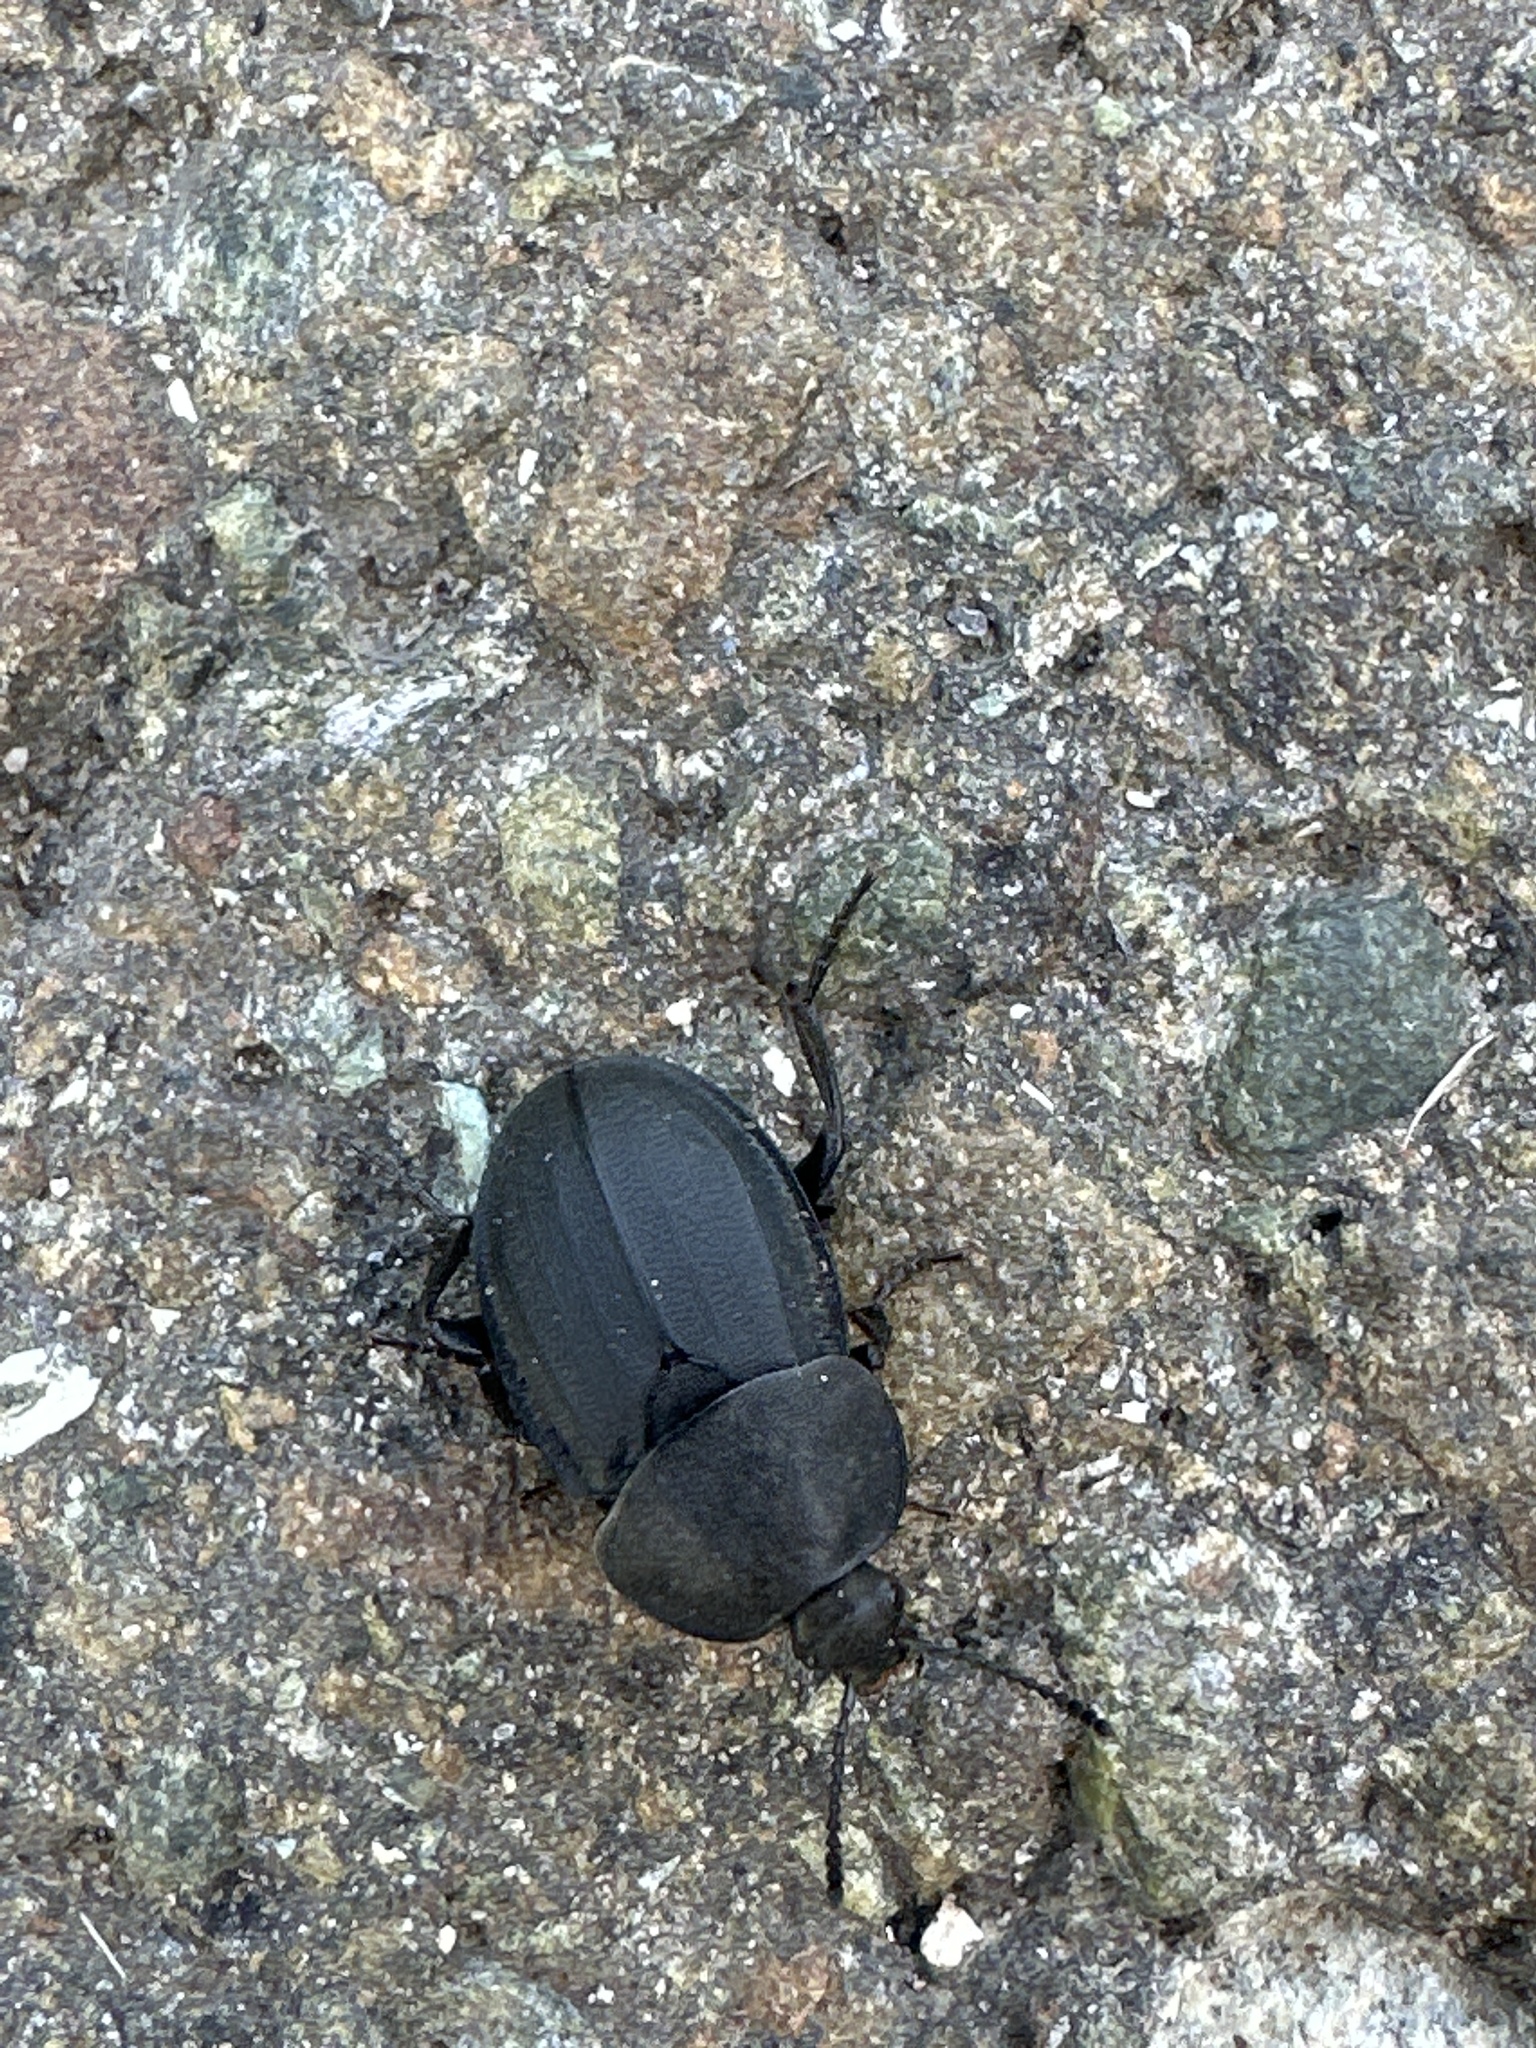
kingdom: Animalia
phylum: Arthropoda
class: Insecta
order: Coleoptera
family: Staphylinidae
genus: Silpha
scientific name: Silpha obscura
